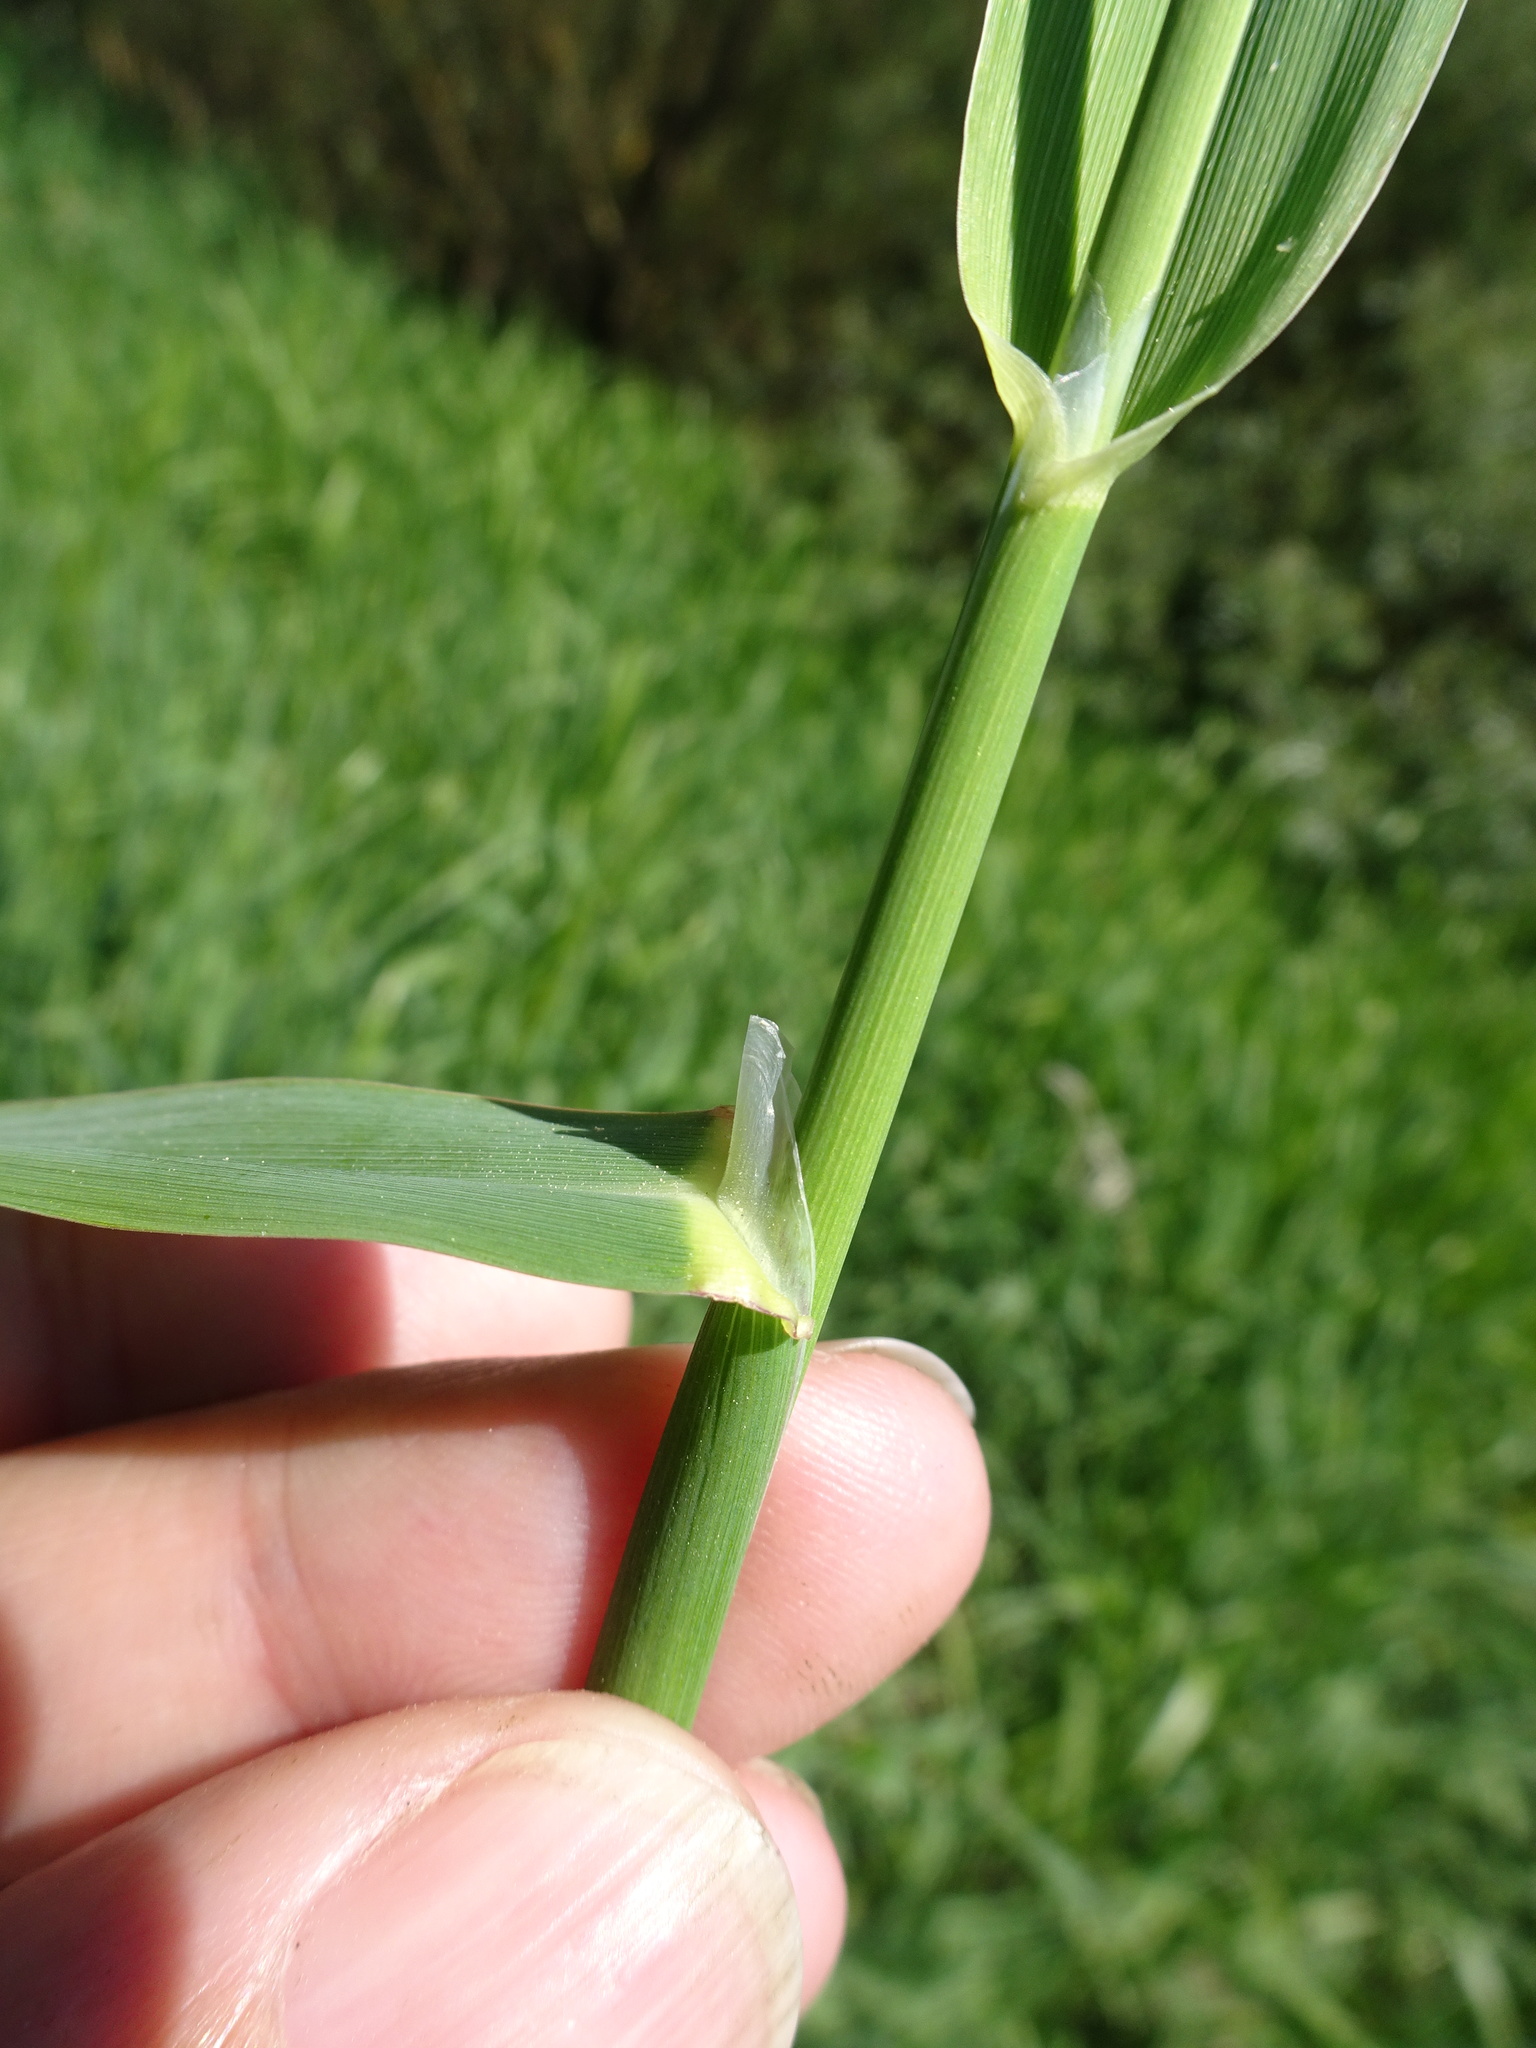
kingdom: Plantae
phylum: Tracheophyta
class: Liliopsida
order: Poales
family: Poaceae
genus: Phalaris
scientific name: Phalaris arundinacea
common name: Reed canary-grass
